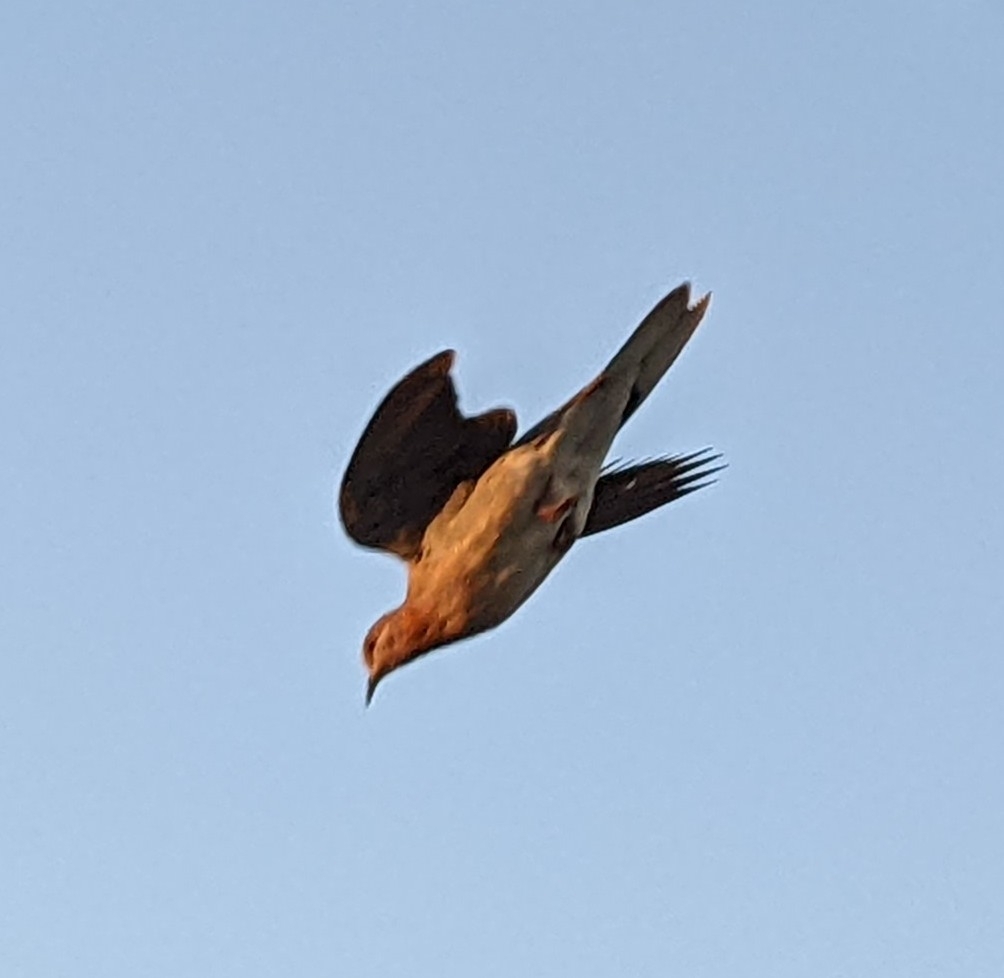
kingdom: Animalia
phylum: Chordata
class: Aves
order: Columbiformes
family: Columbidae
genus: Spilopelia
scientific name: Spilopelia senegalensis
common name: Laughing dove
